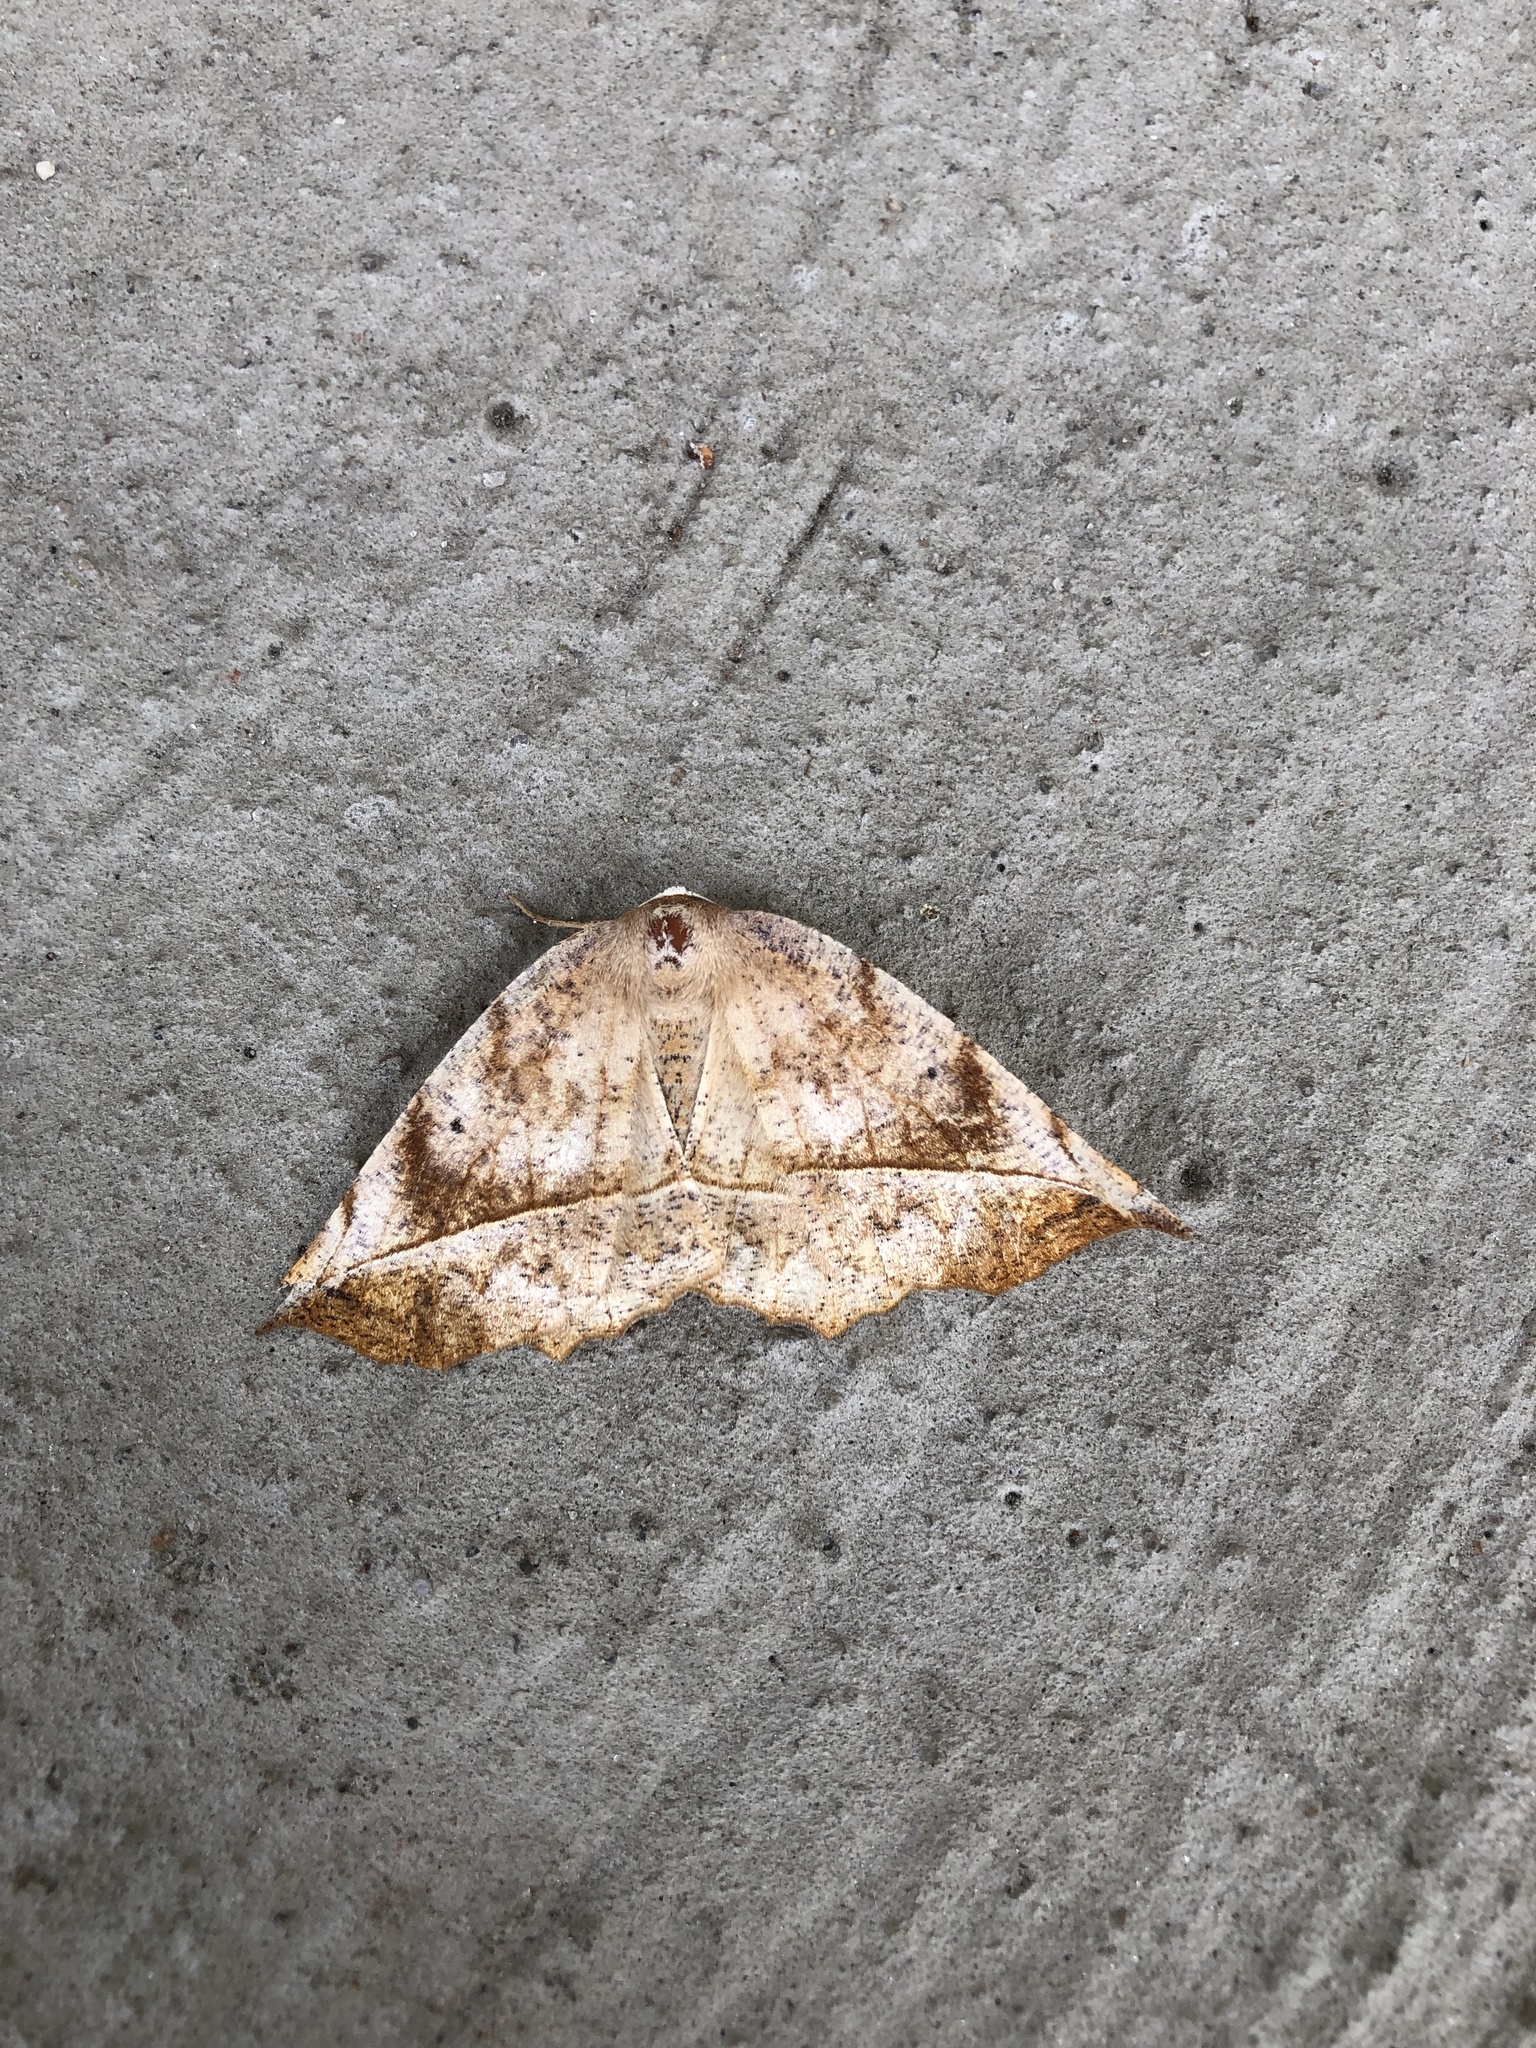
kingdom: Animalia
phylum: Arthropoda
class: Insecta
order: Lepidoptera
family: Geometridae
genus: Eutrapela
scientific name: Eutrapela clemataria
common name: Curved-toothed geometer
